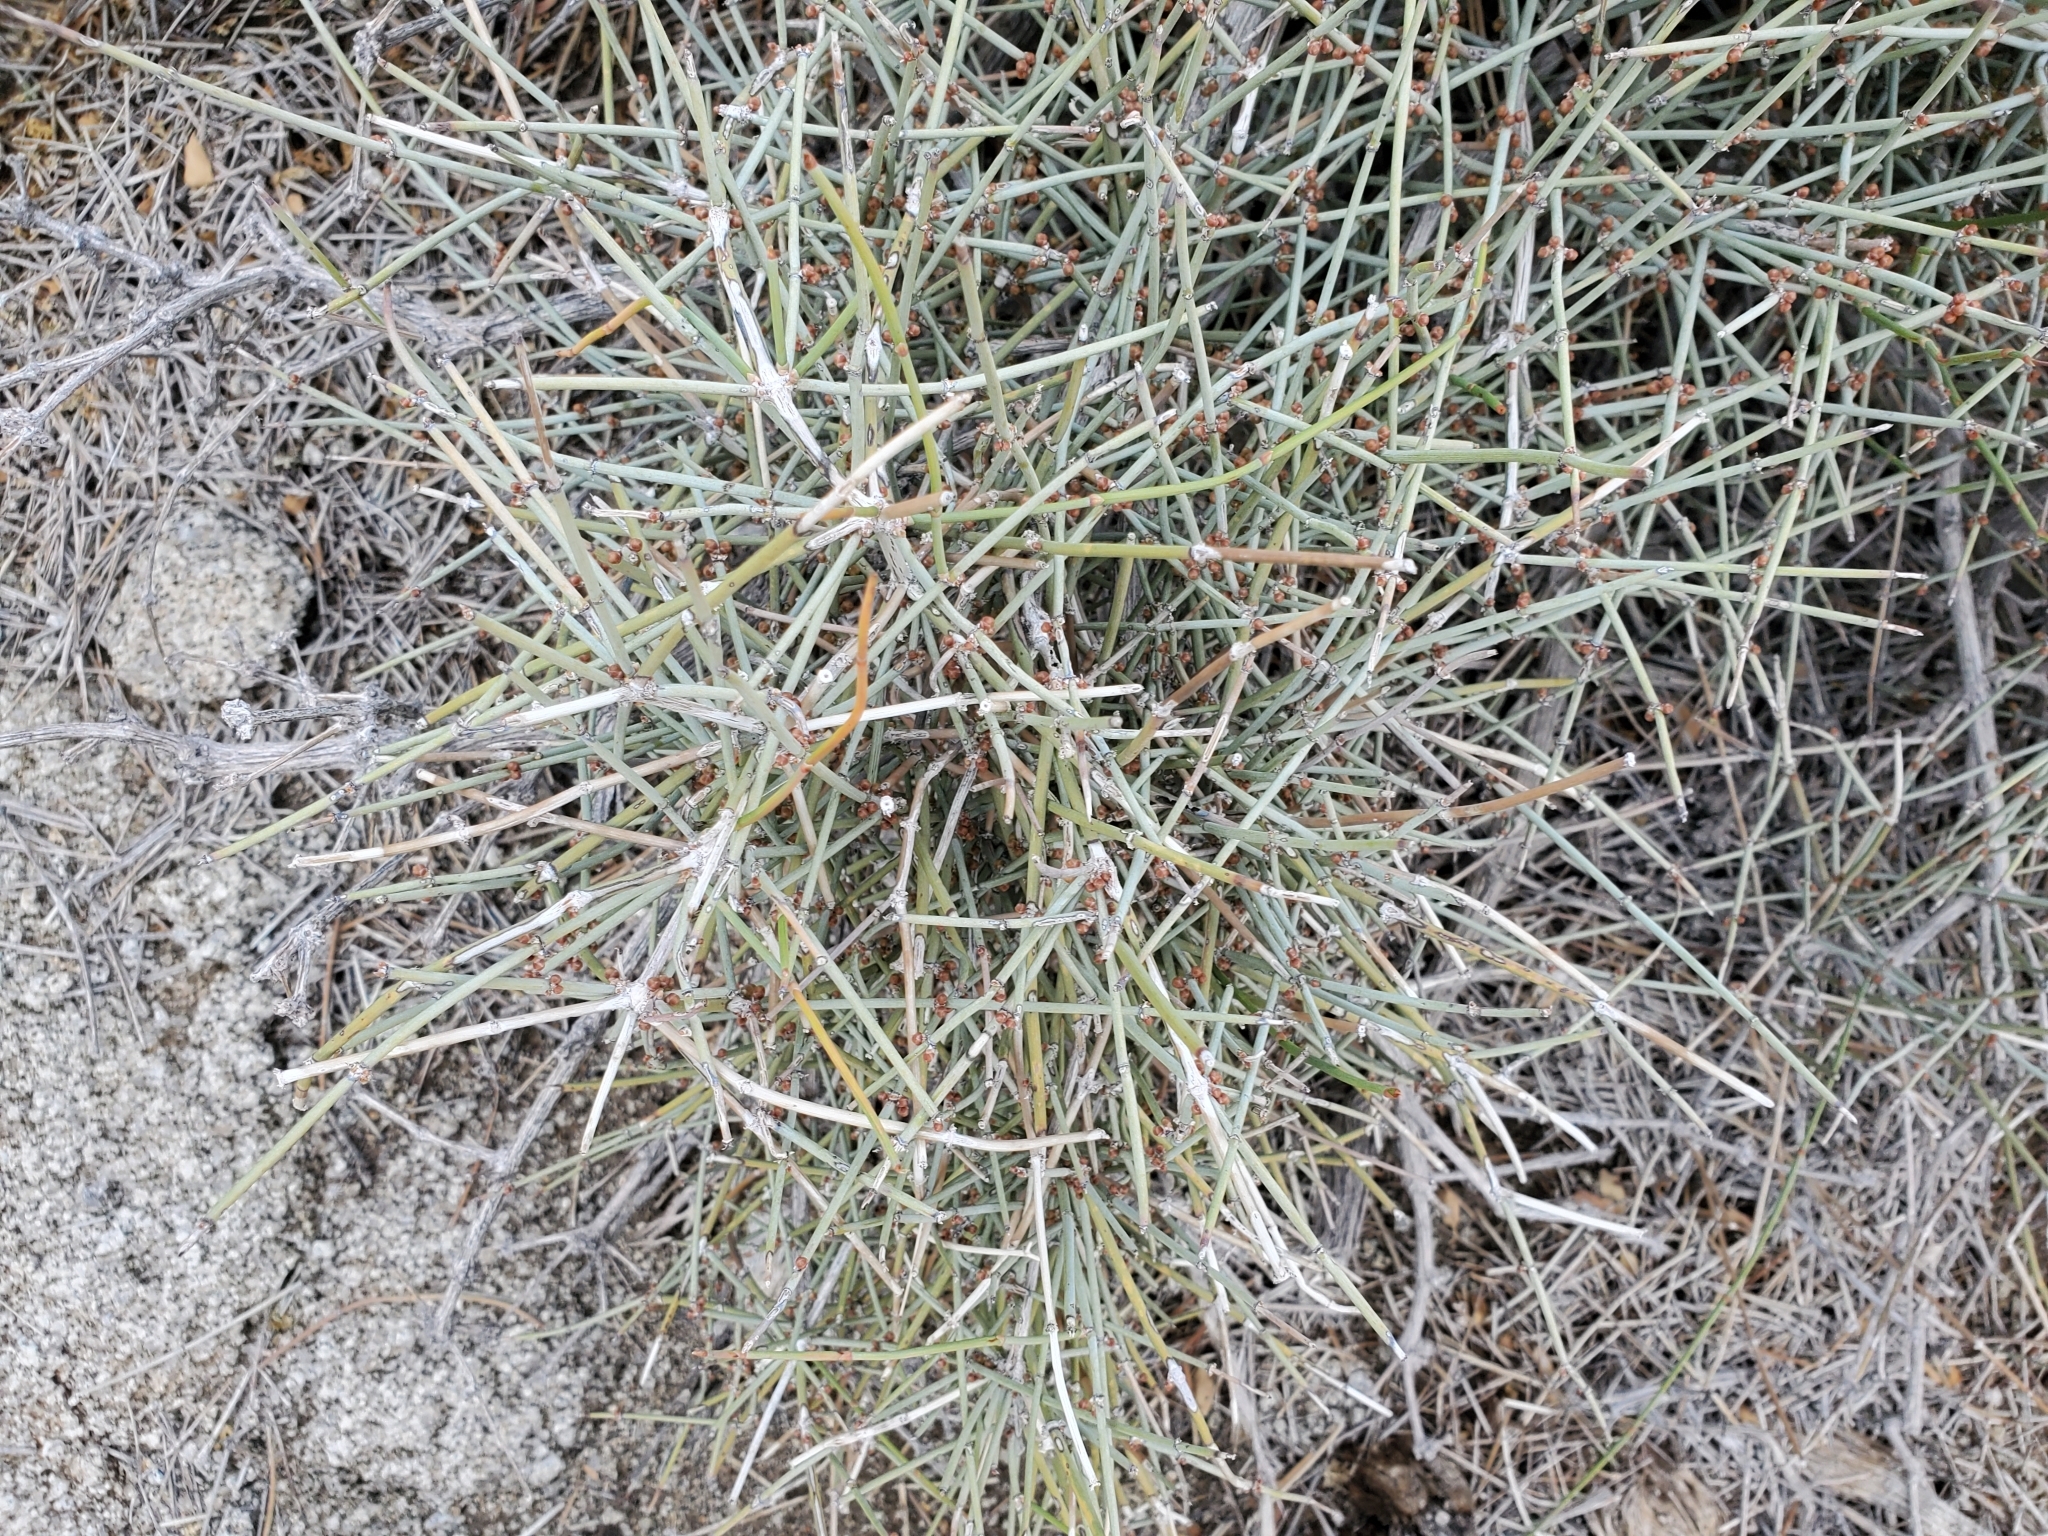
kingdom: Plantae
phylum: Tracheophyta
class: Gnetopsida
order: Ephedrales
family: Ephedraceae
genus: Ephedra
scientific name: Ephedra aspera
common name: Boundary ephedra
